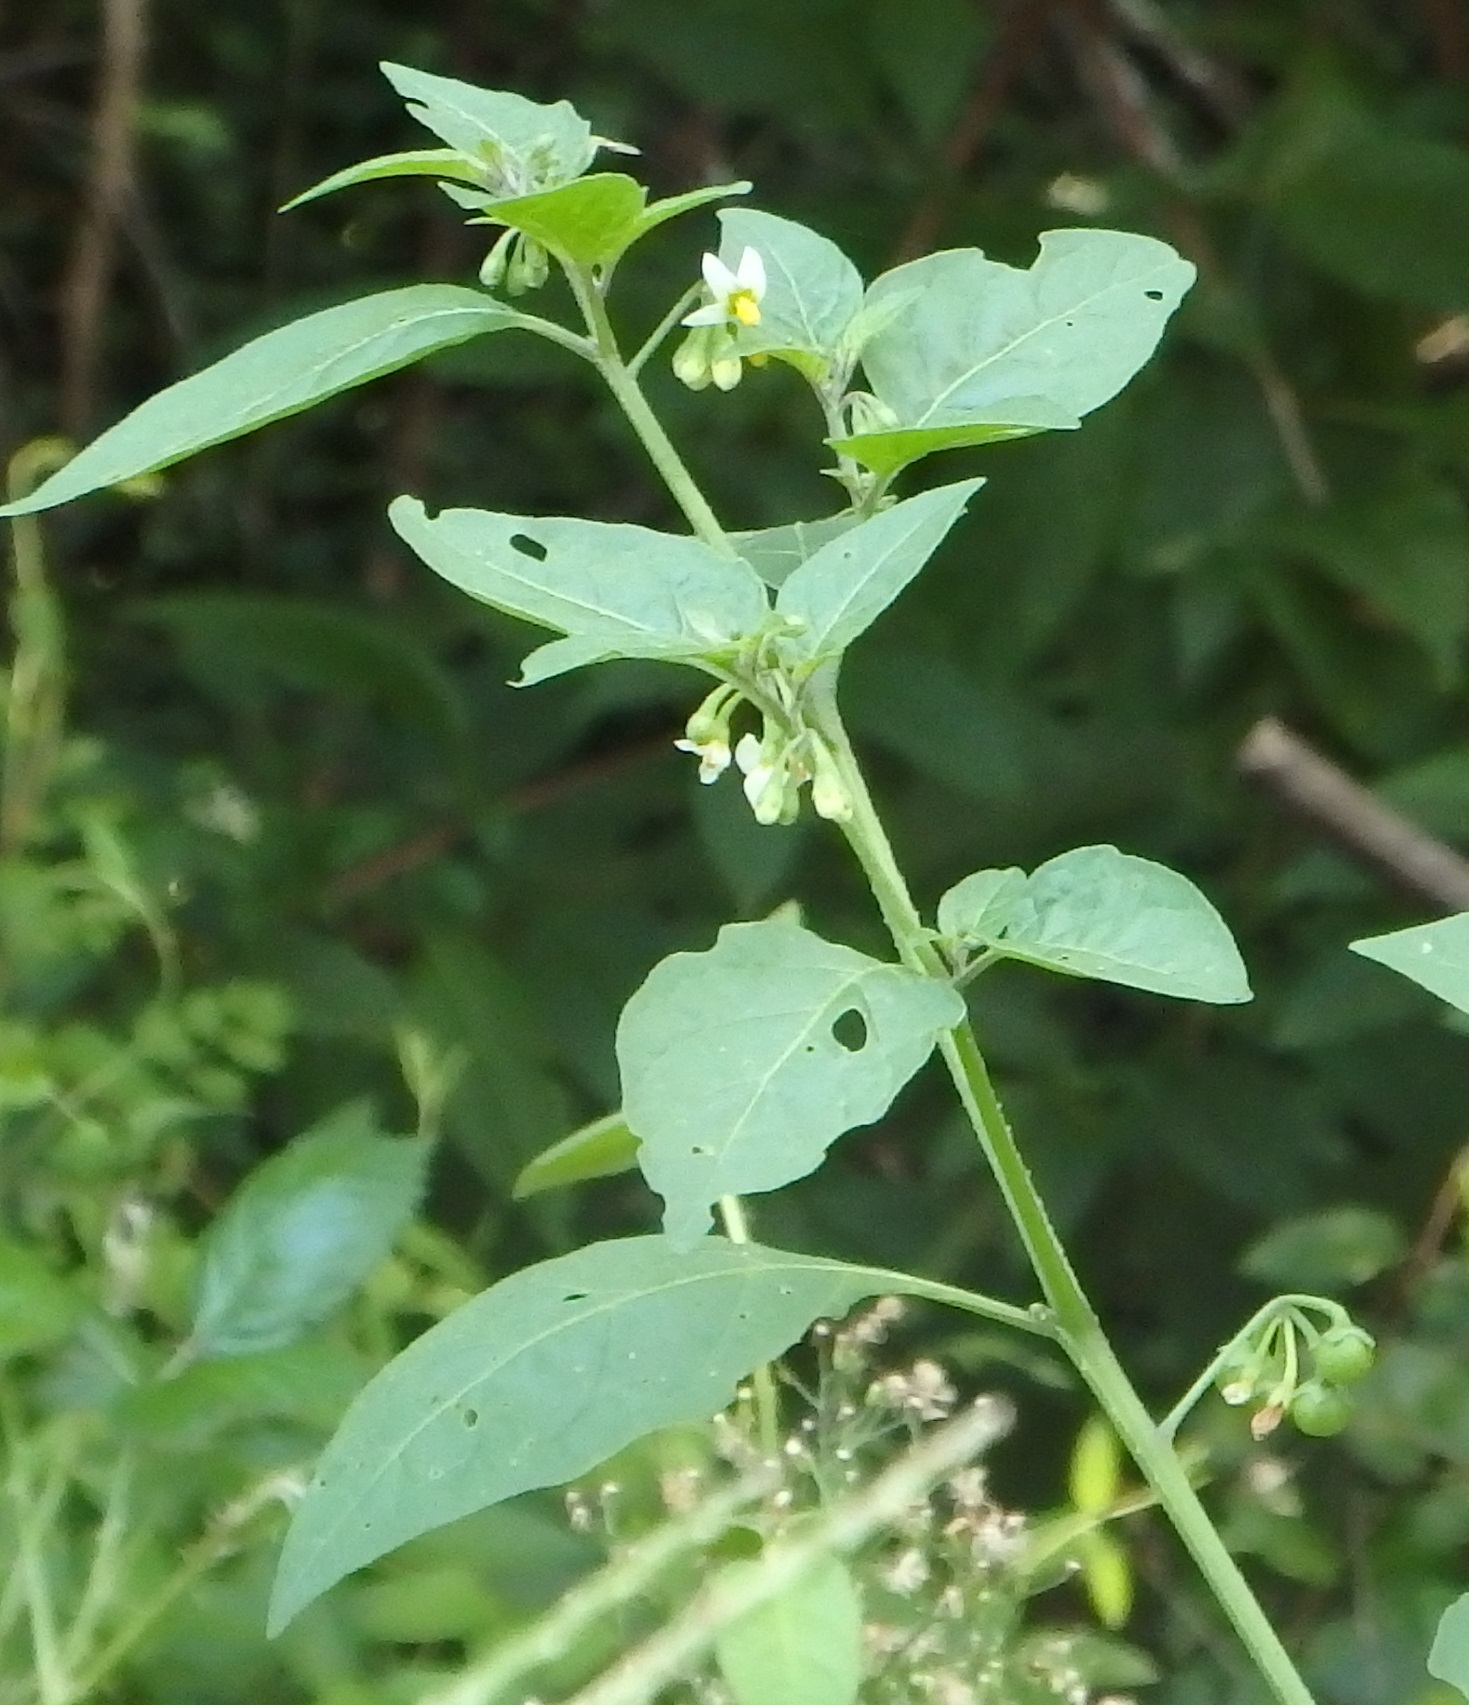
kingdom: Plantae
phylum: Tracheophyta
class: Magnoliopsida
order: Solanales
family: Solanaceae
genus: Solanum
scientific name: Solanum emulans
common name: Eastern black nightshade
